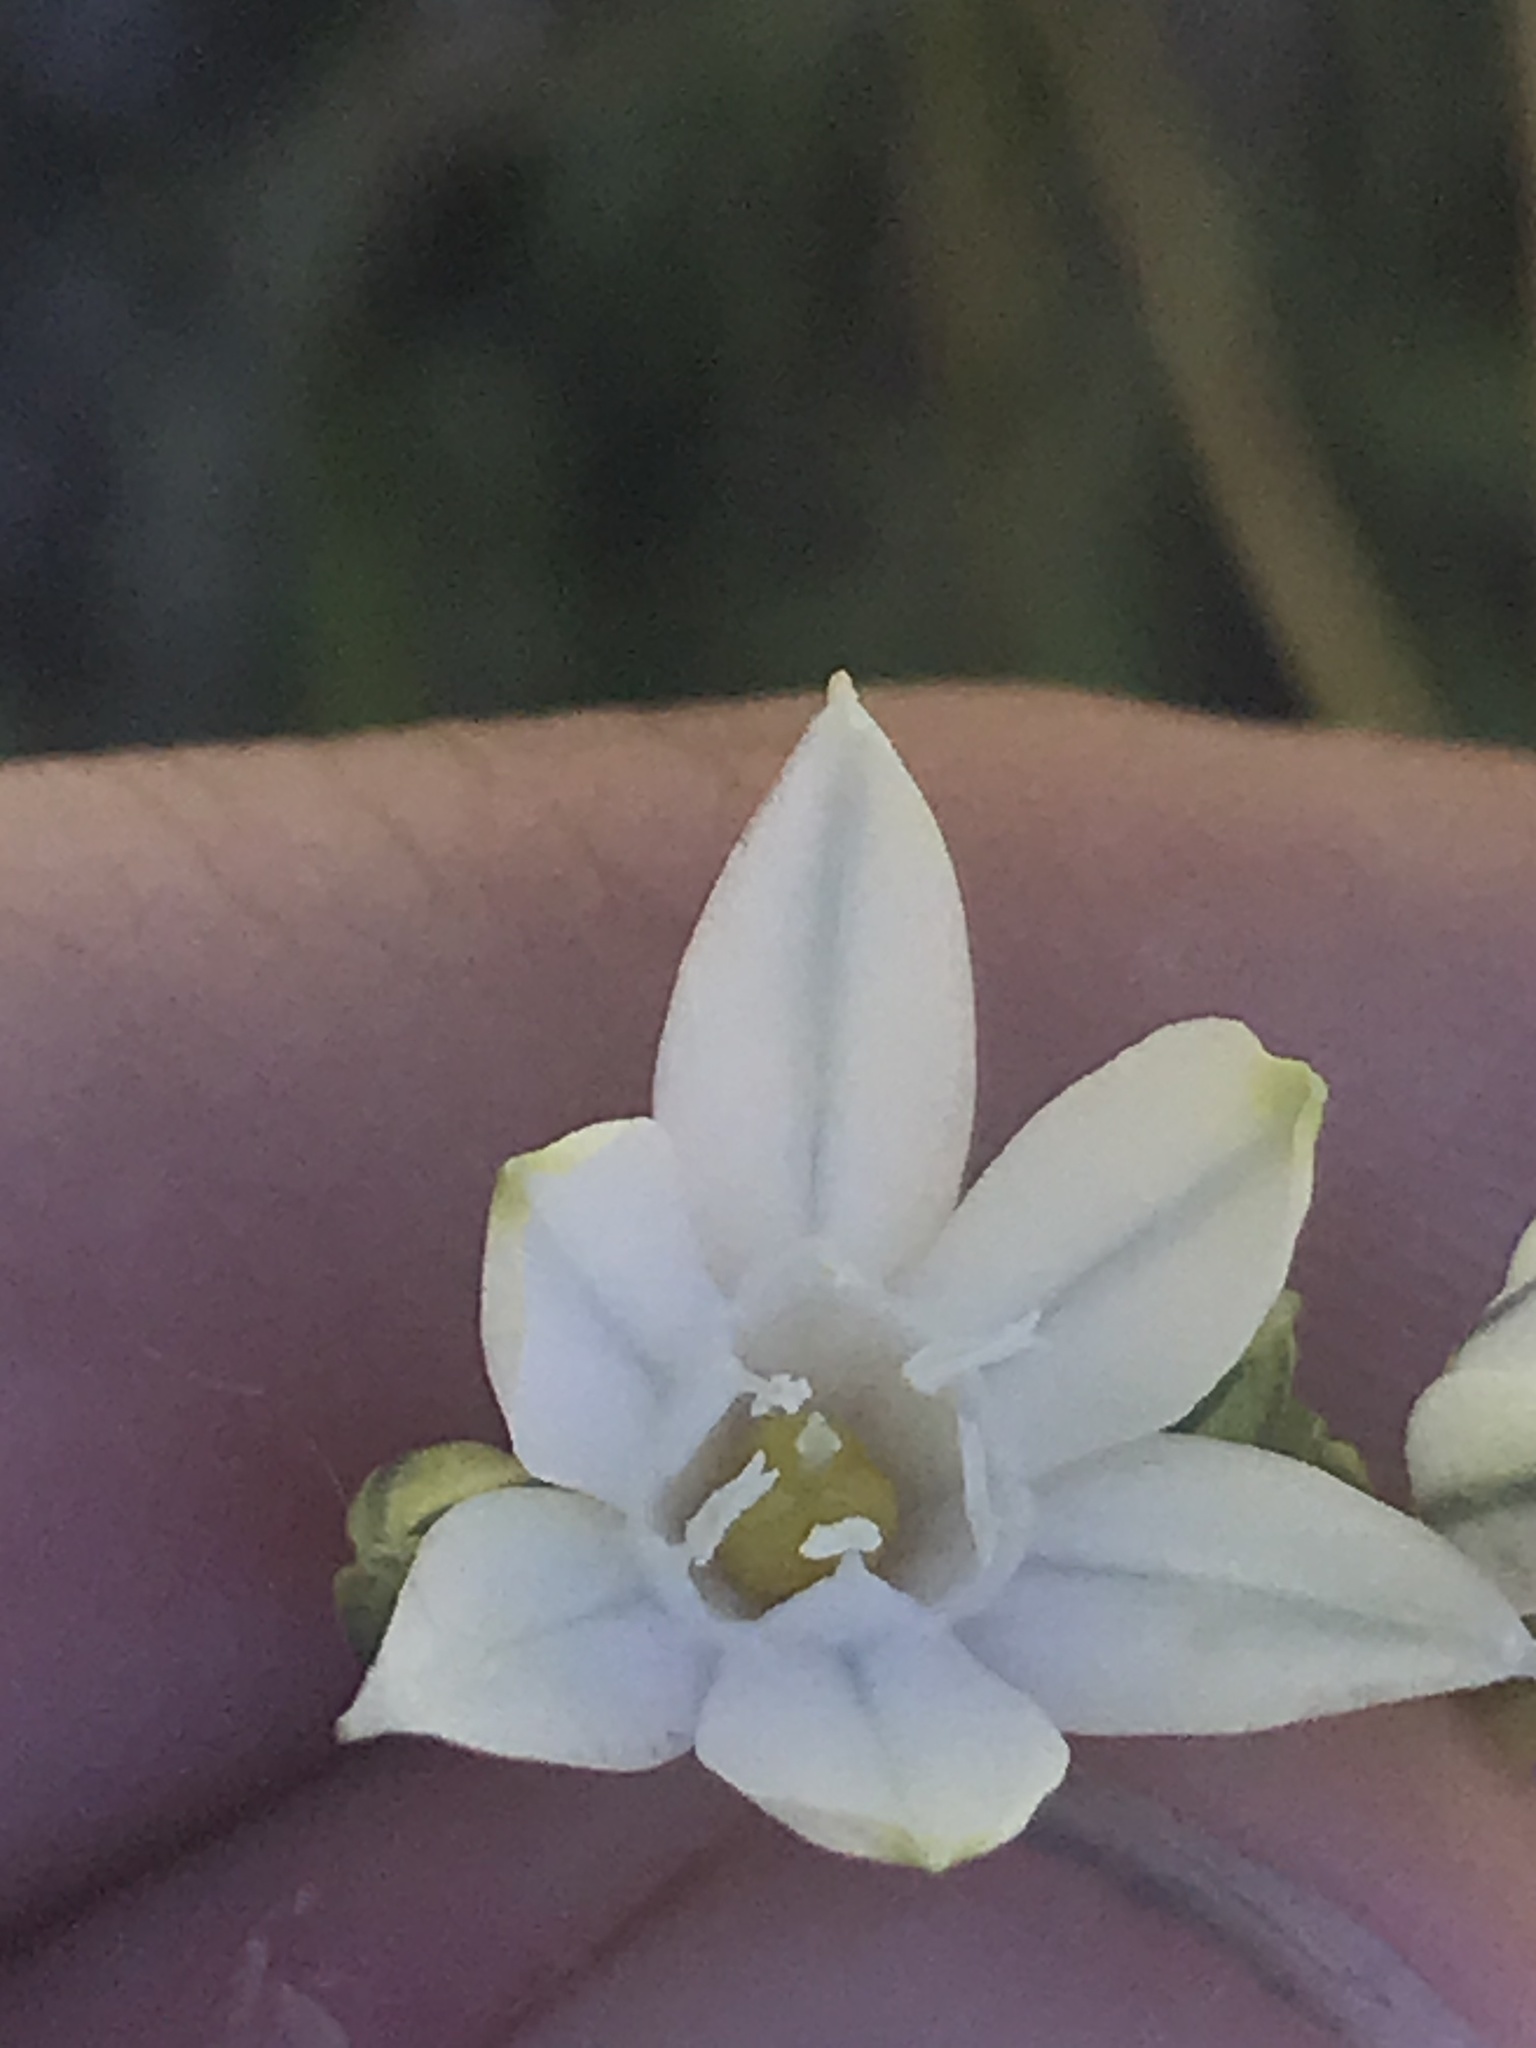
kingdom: Plantae
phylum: Tracheophyta
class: Liliopsida
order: Asparagales
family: Asparagaceae
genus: Triteleia
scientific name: Triteleia hyacinthina
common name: White brodiaea
